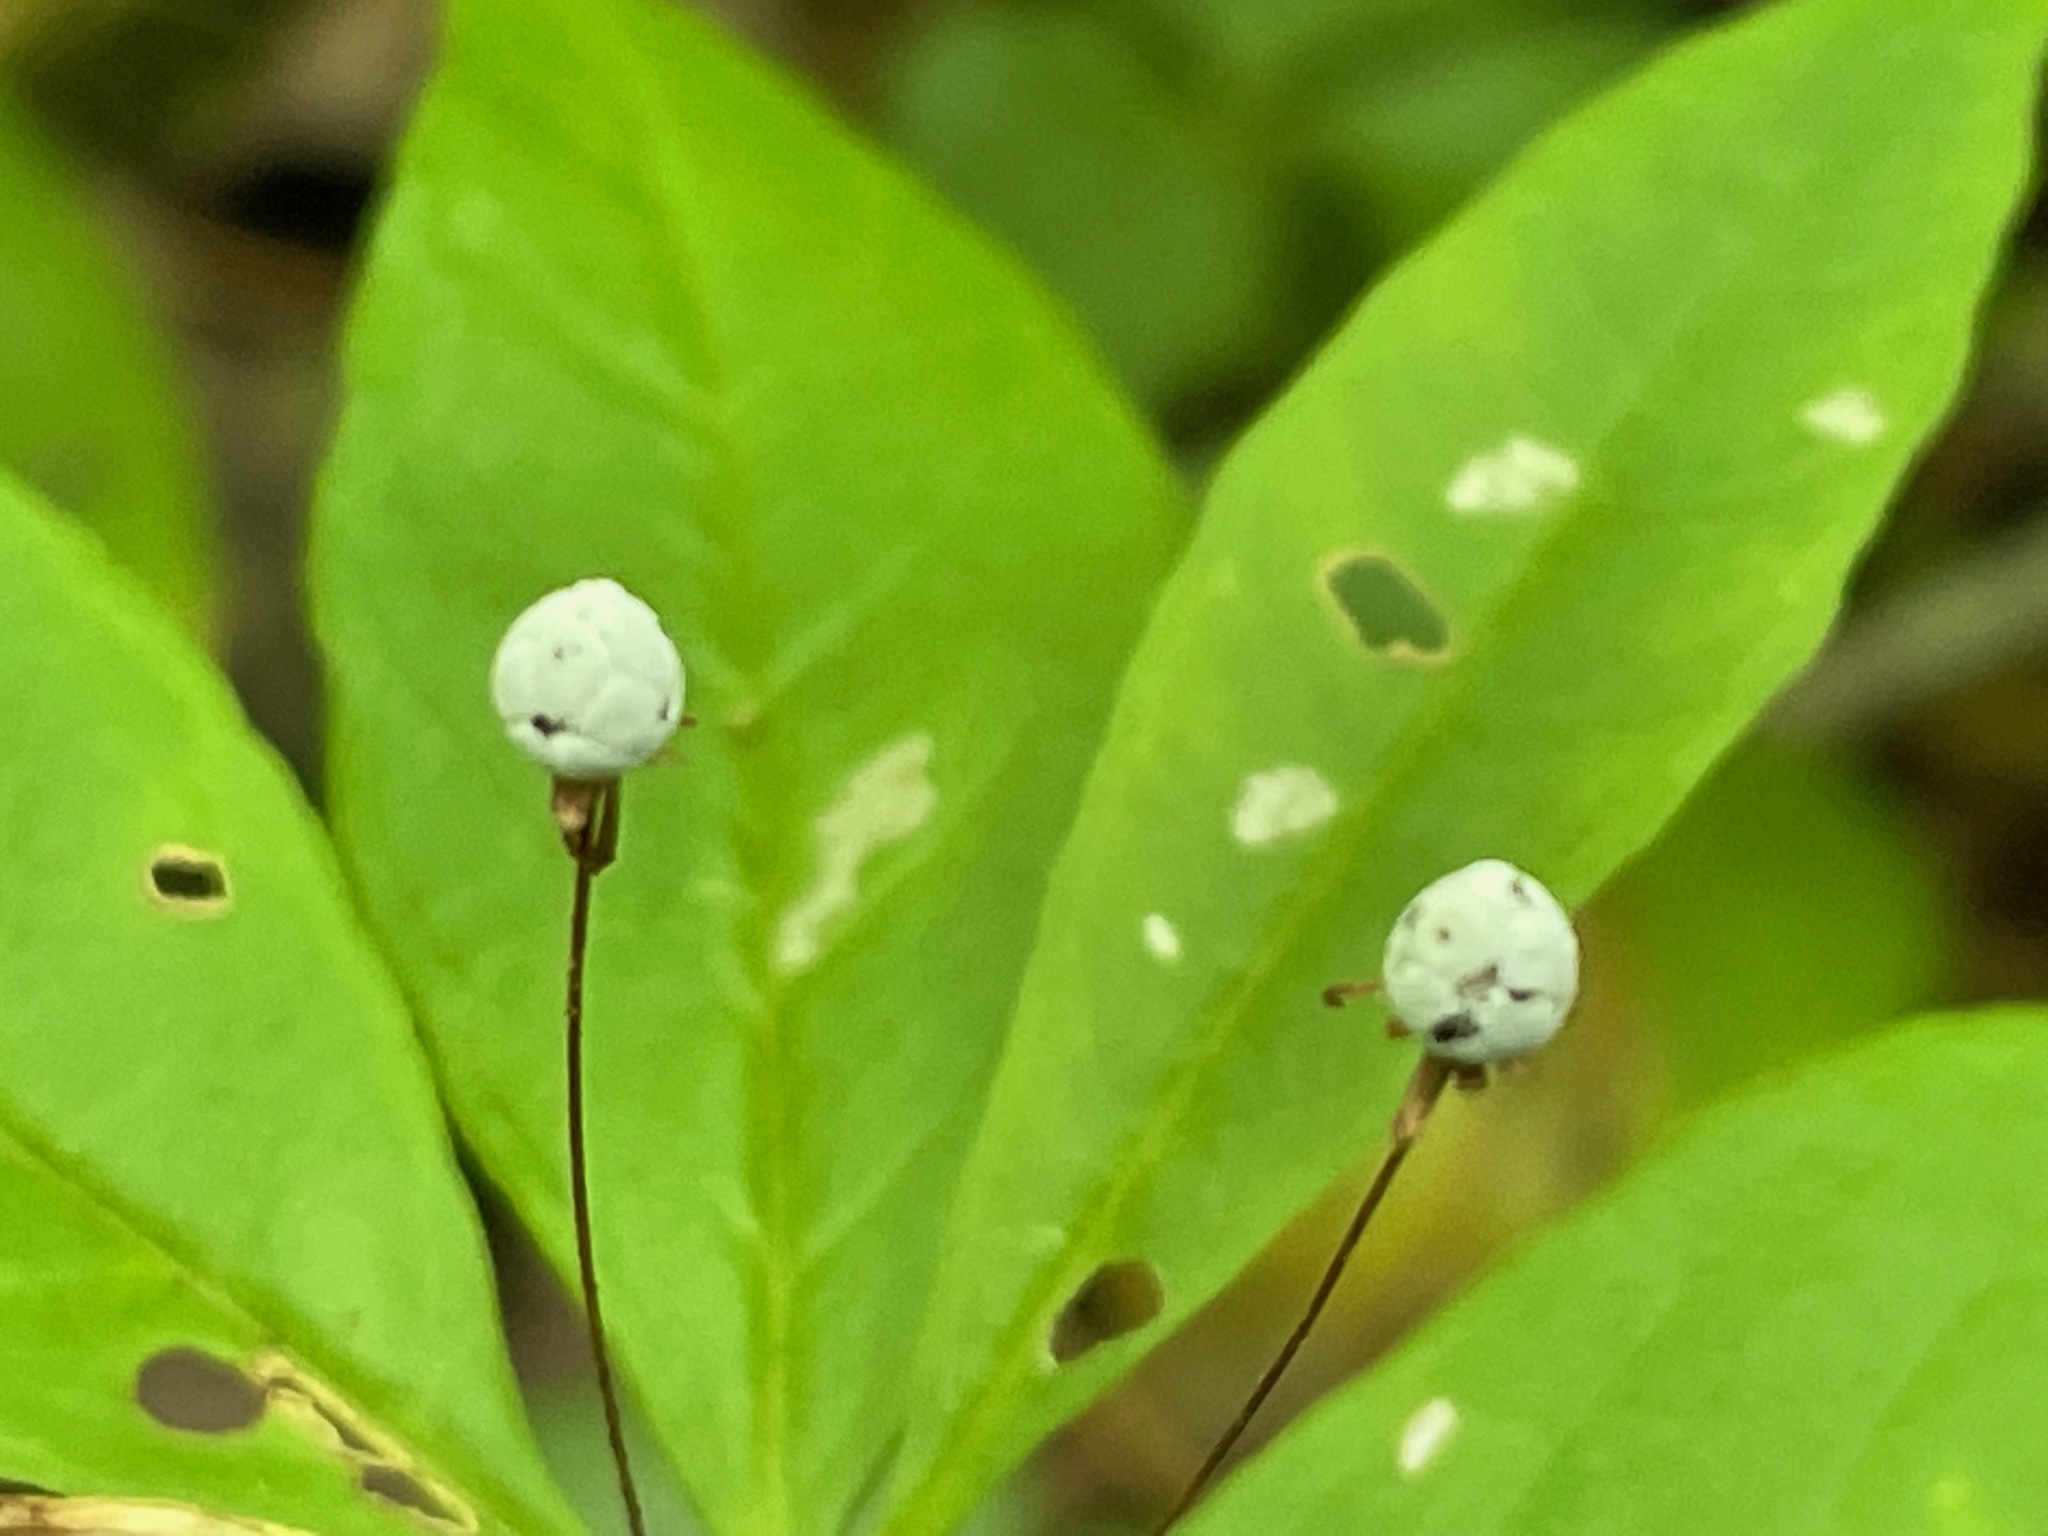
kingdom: Plantae
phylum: Tracheophyta
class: Magnoliopsida
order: Ericales
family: Primulaceae
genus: Lysimachia
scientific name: Lysimachia borealis
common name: American starflower
